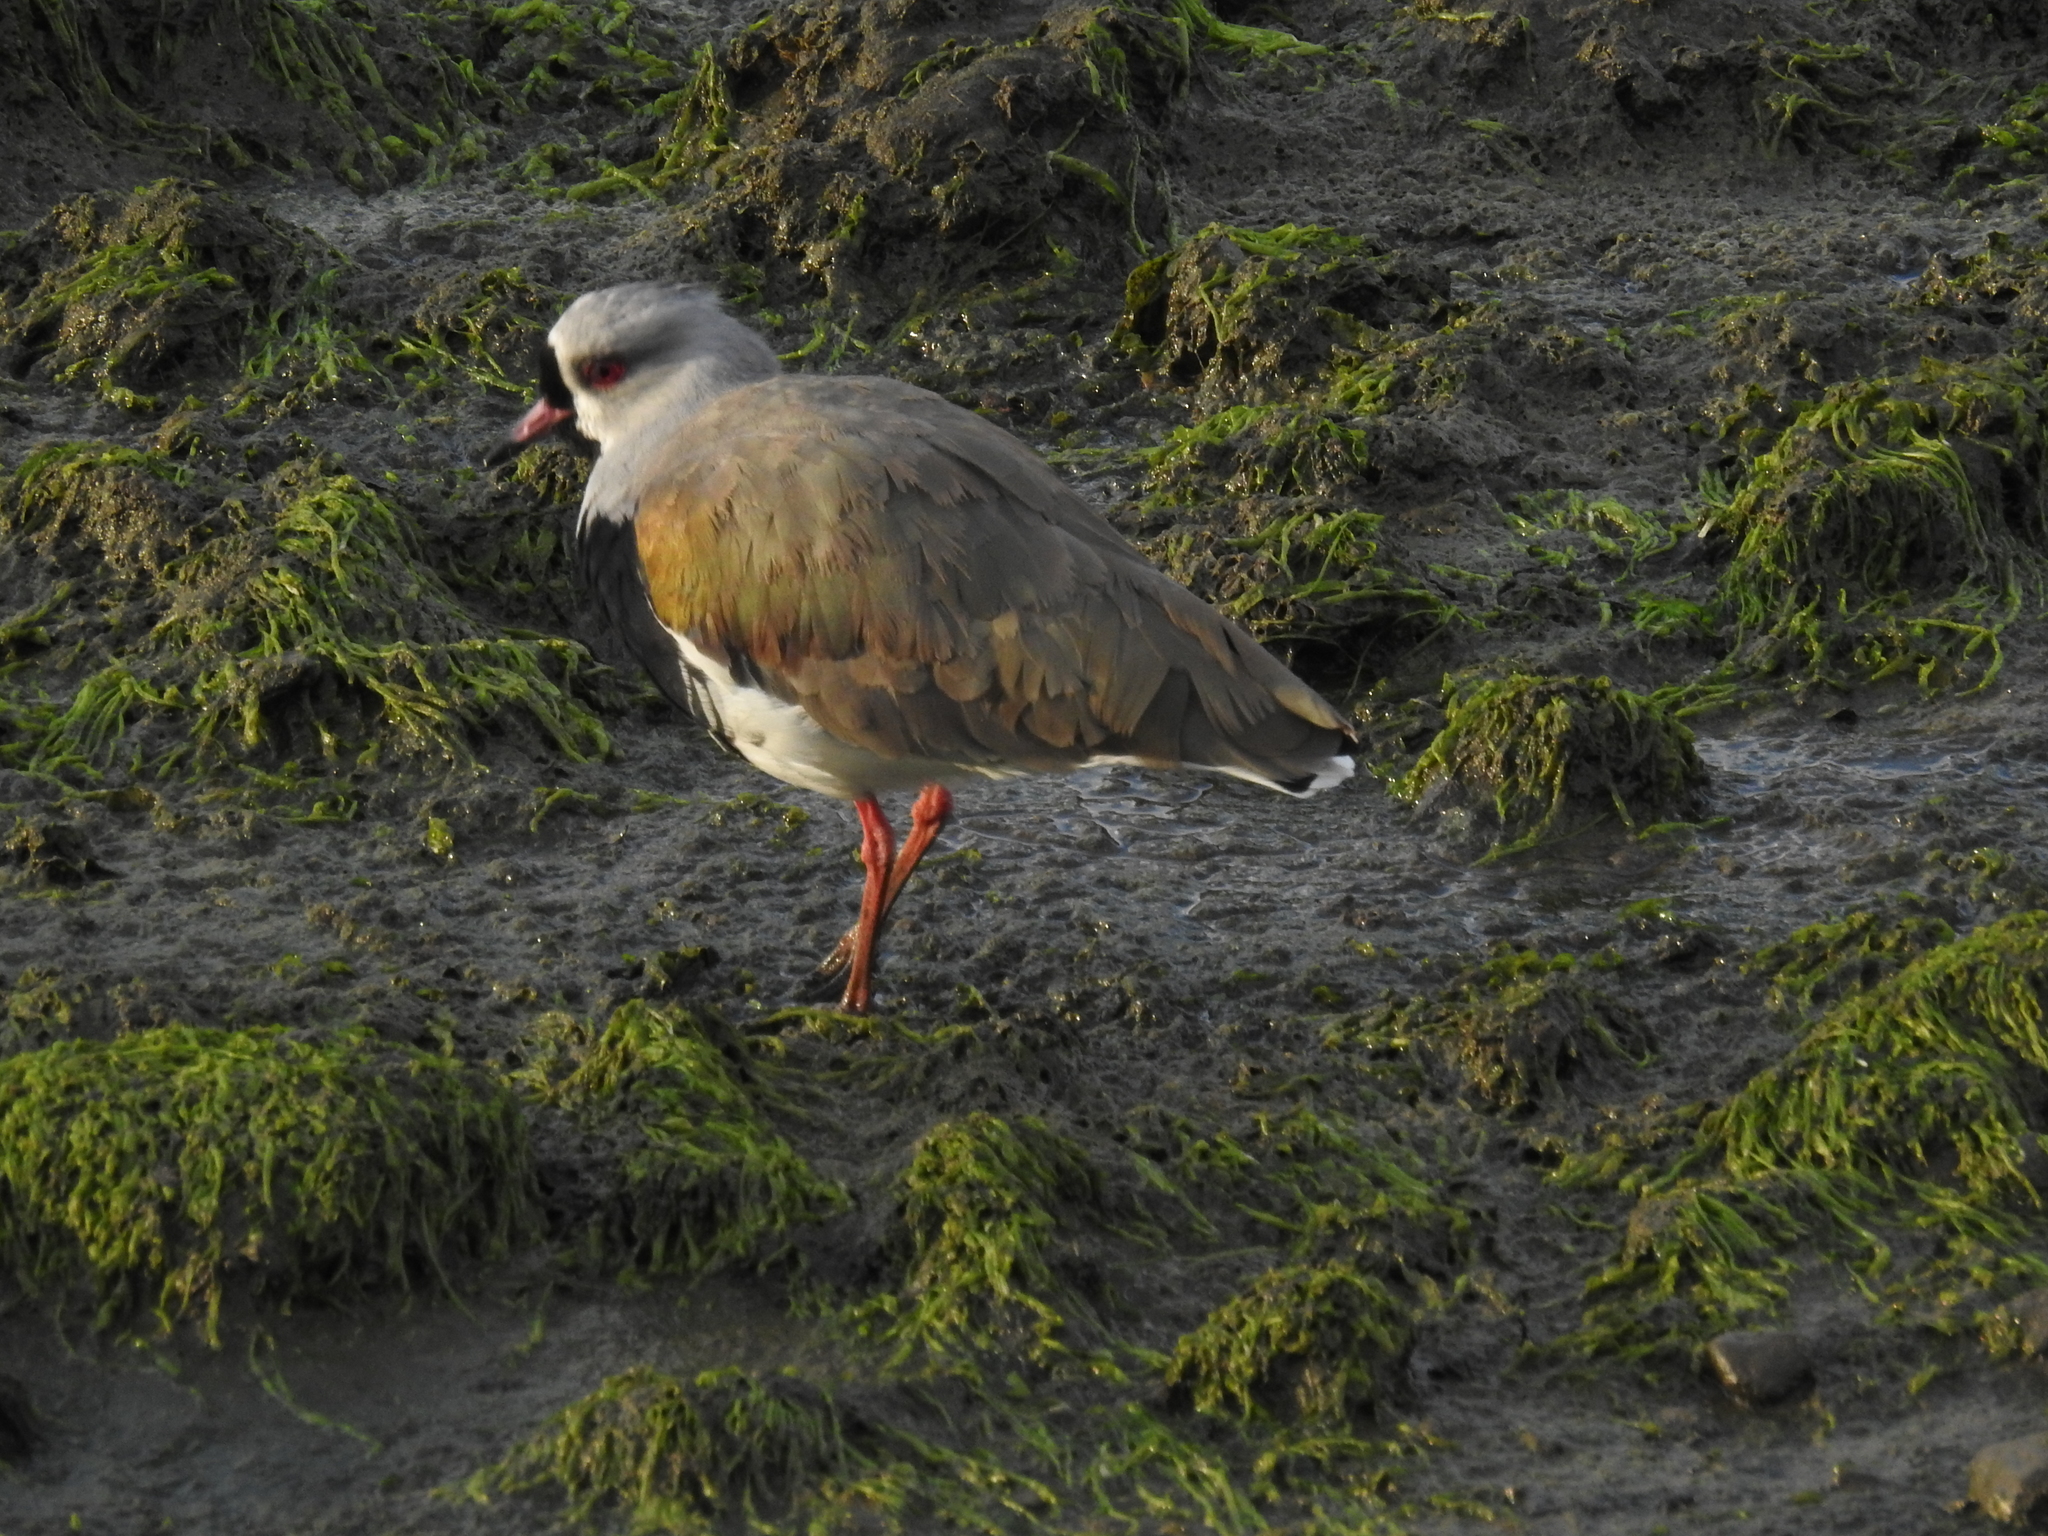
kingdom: Animalia
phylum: Chordata
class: Aves
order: Charadriiformes
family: Charadriidae
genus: Vanellus
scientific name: Vanellus chilensis
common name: Southern lapwing
